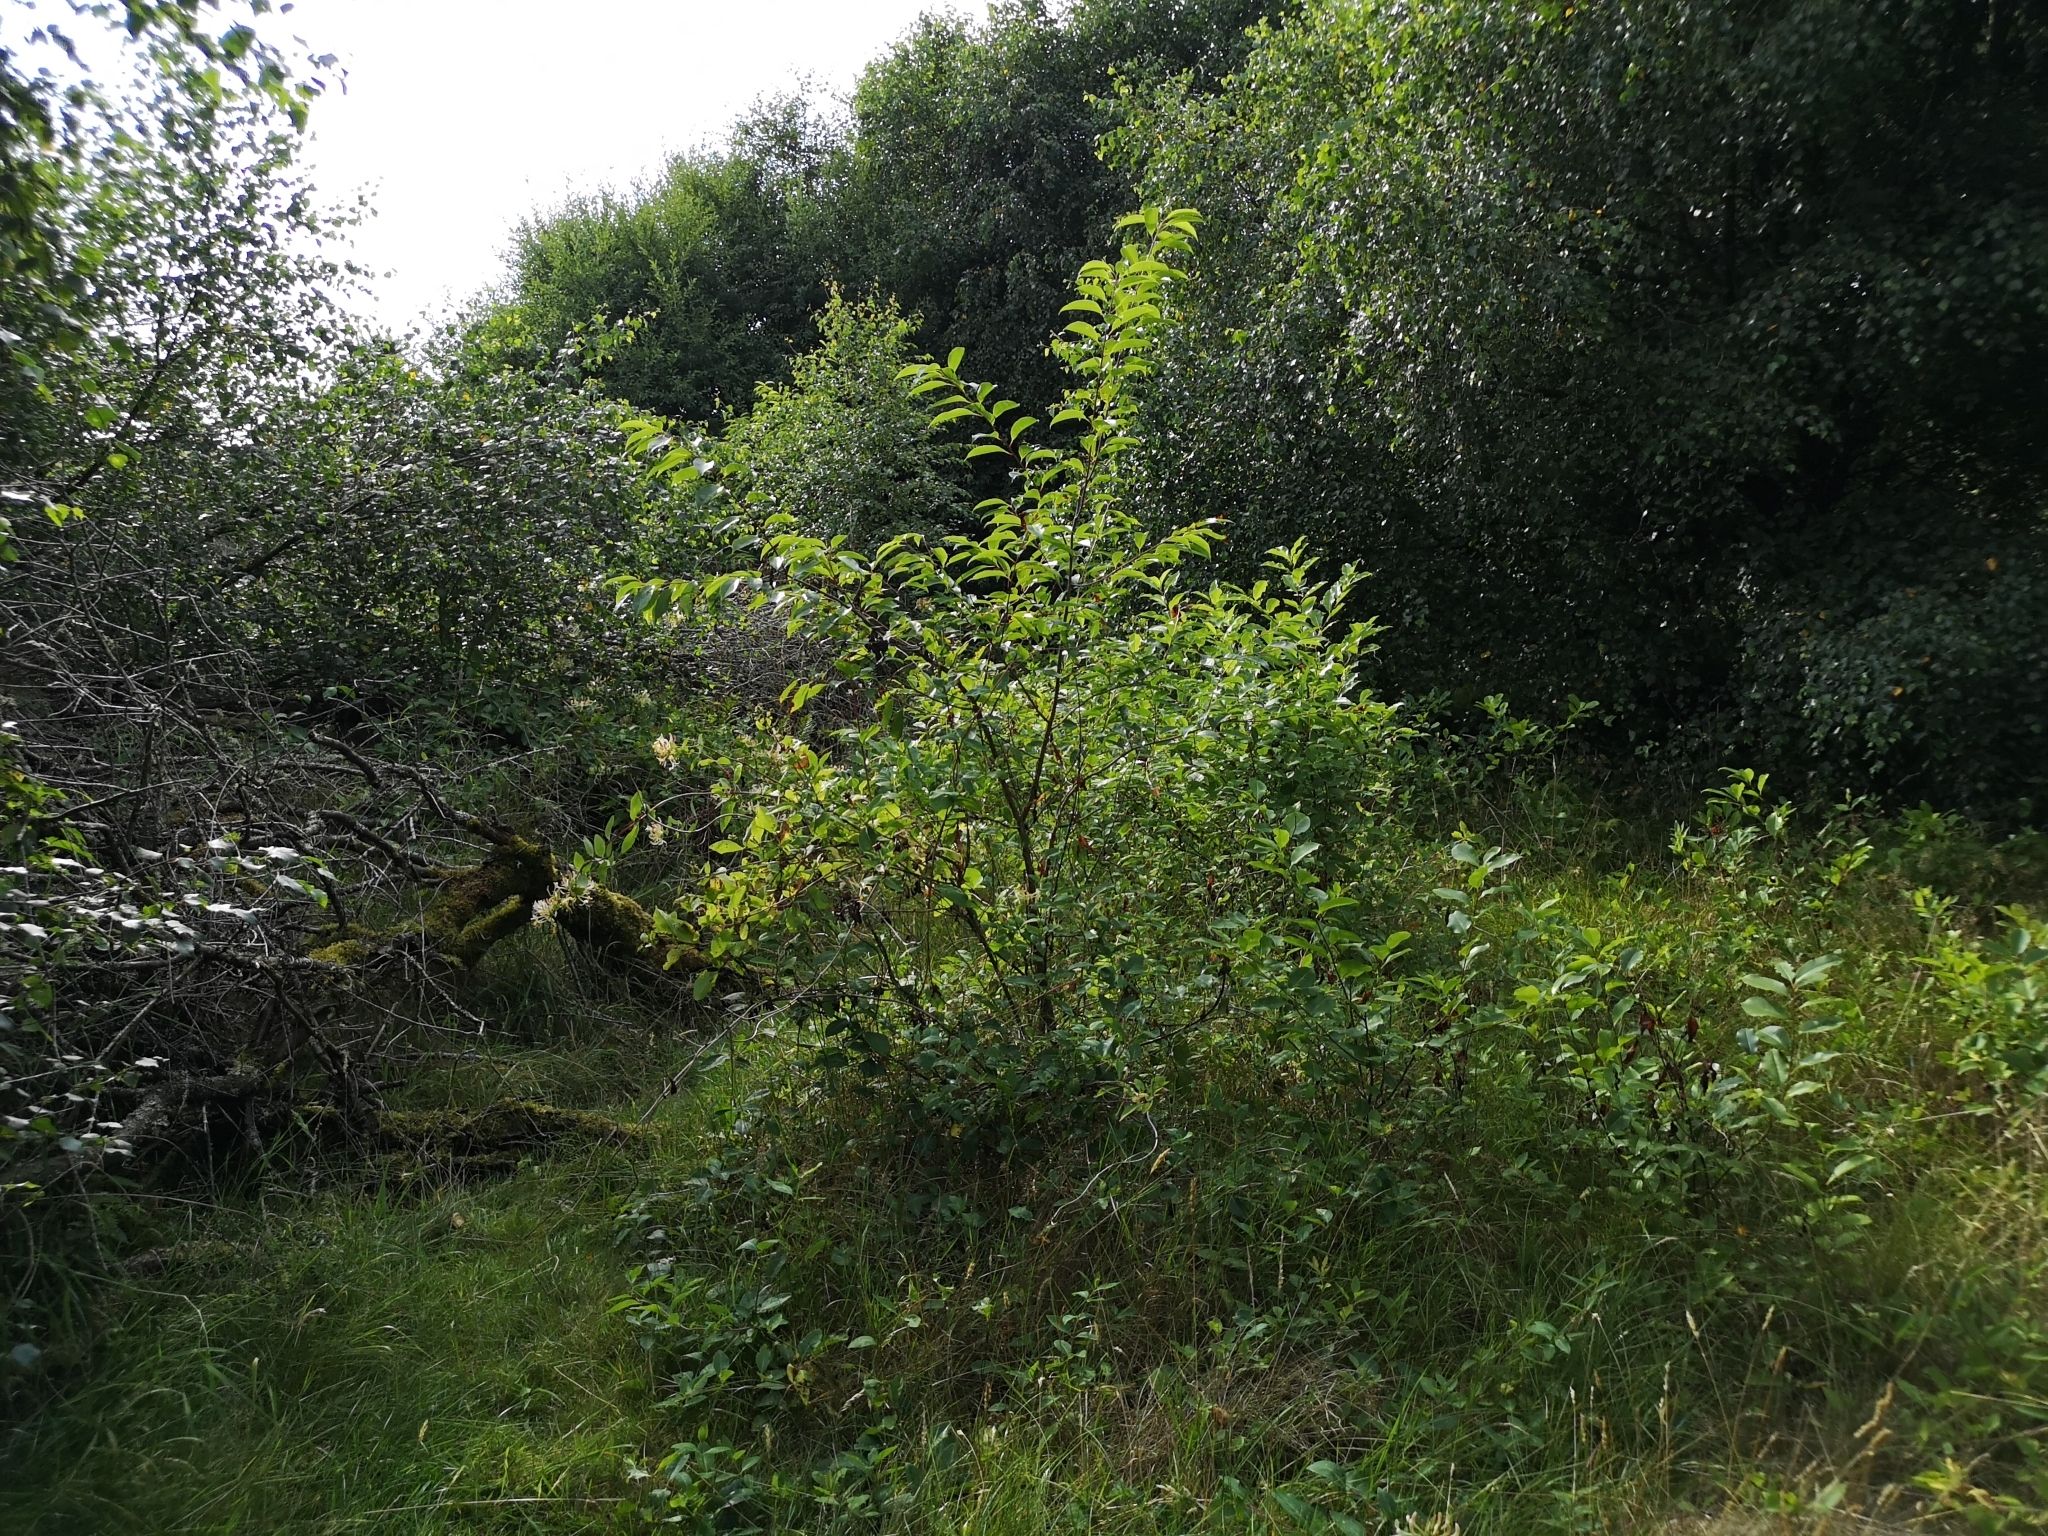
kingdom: Plantae
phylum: Tracheophyta
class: Magnoliopsida
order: Rosales
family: Rosaceae
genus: Prunus
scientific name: Prunus serotina
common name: Black cherry
